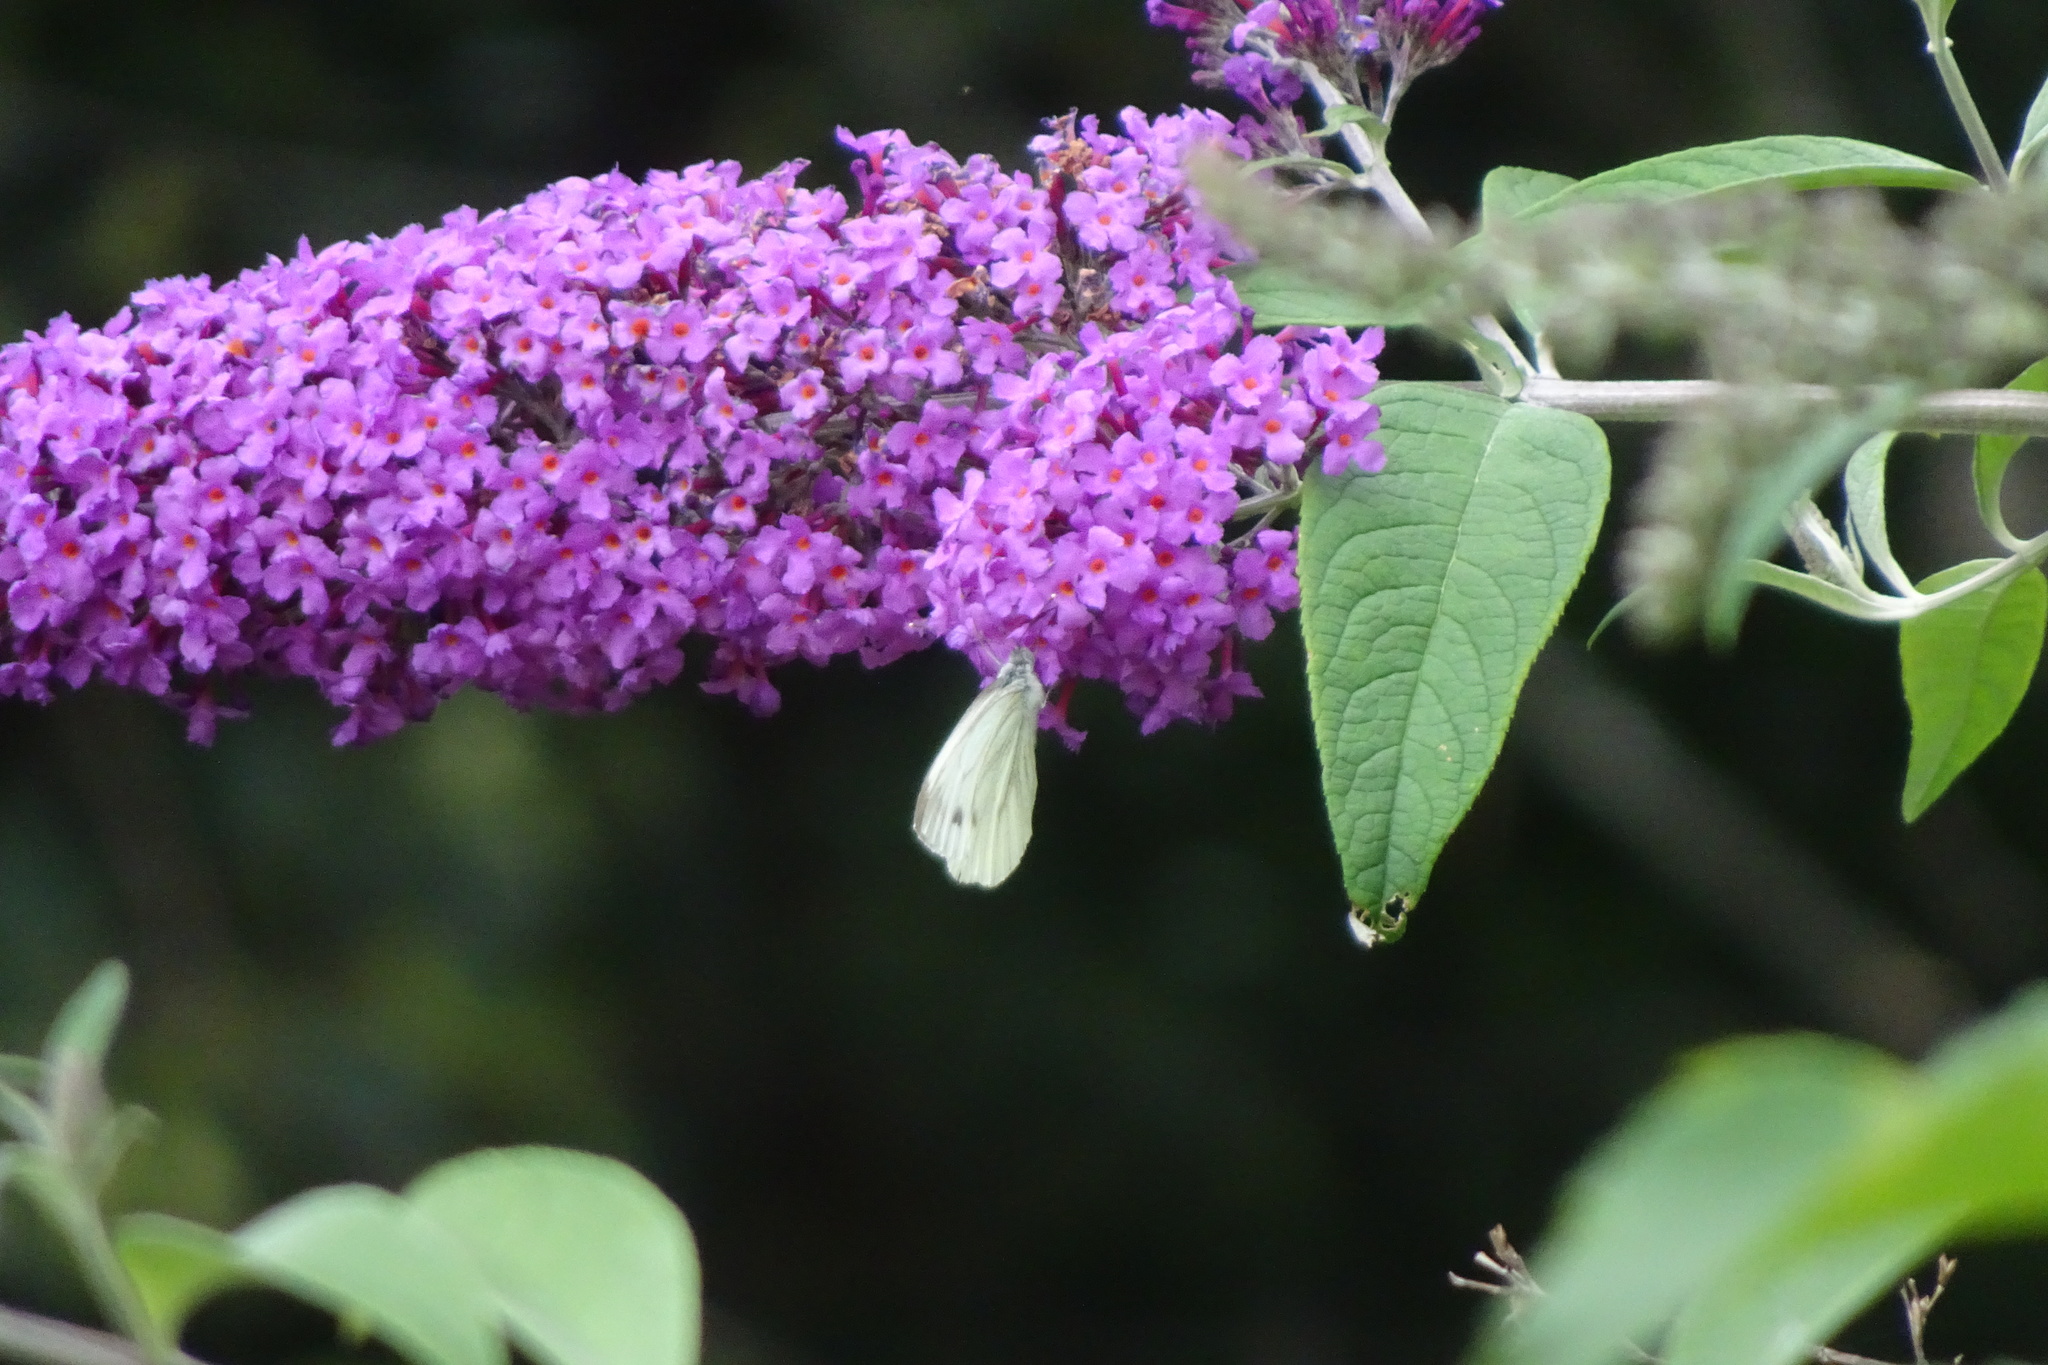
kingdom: Animalia
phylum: Arthropoda
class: Insecta
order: Lepidoptera
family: Pieridae
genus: Pieris
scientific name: Pieris napi
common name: Green-veined white
